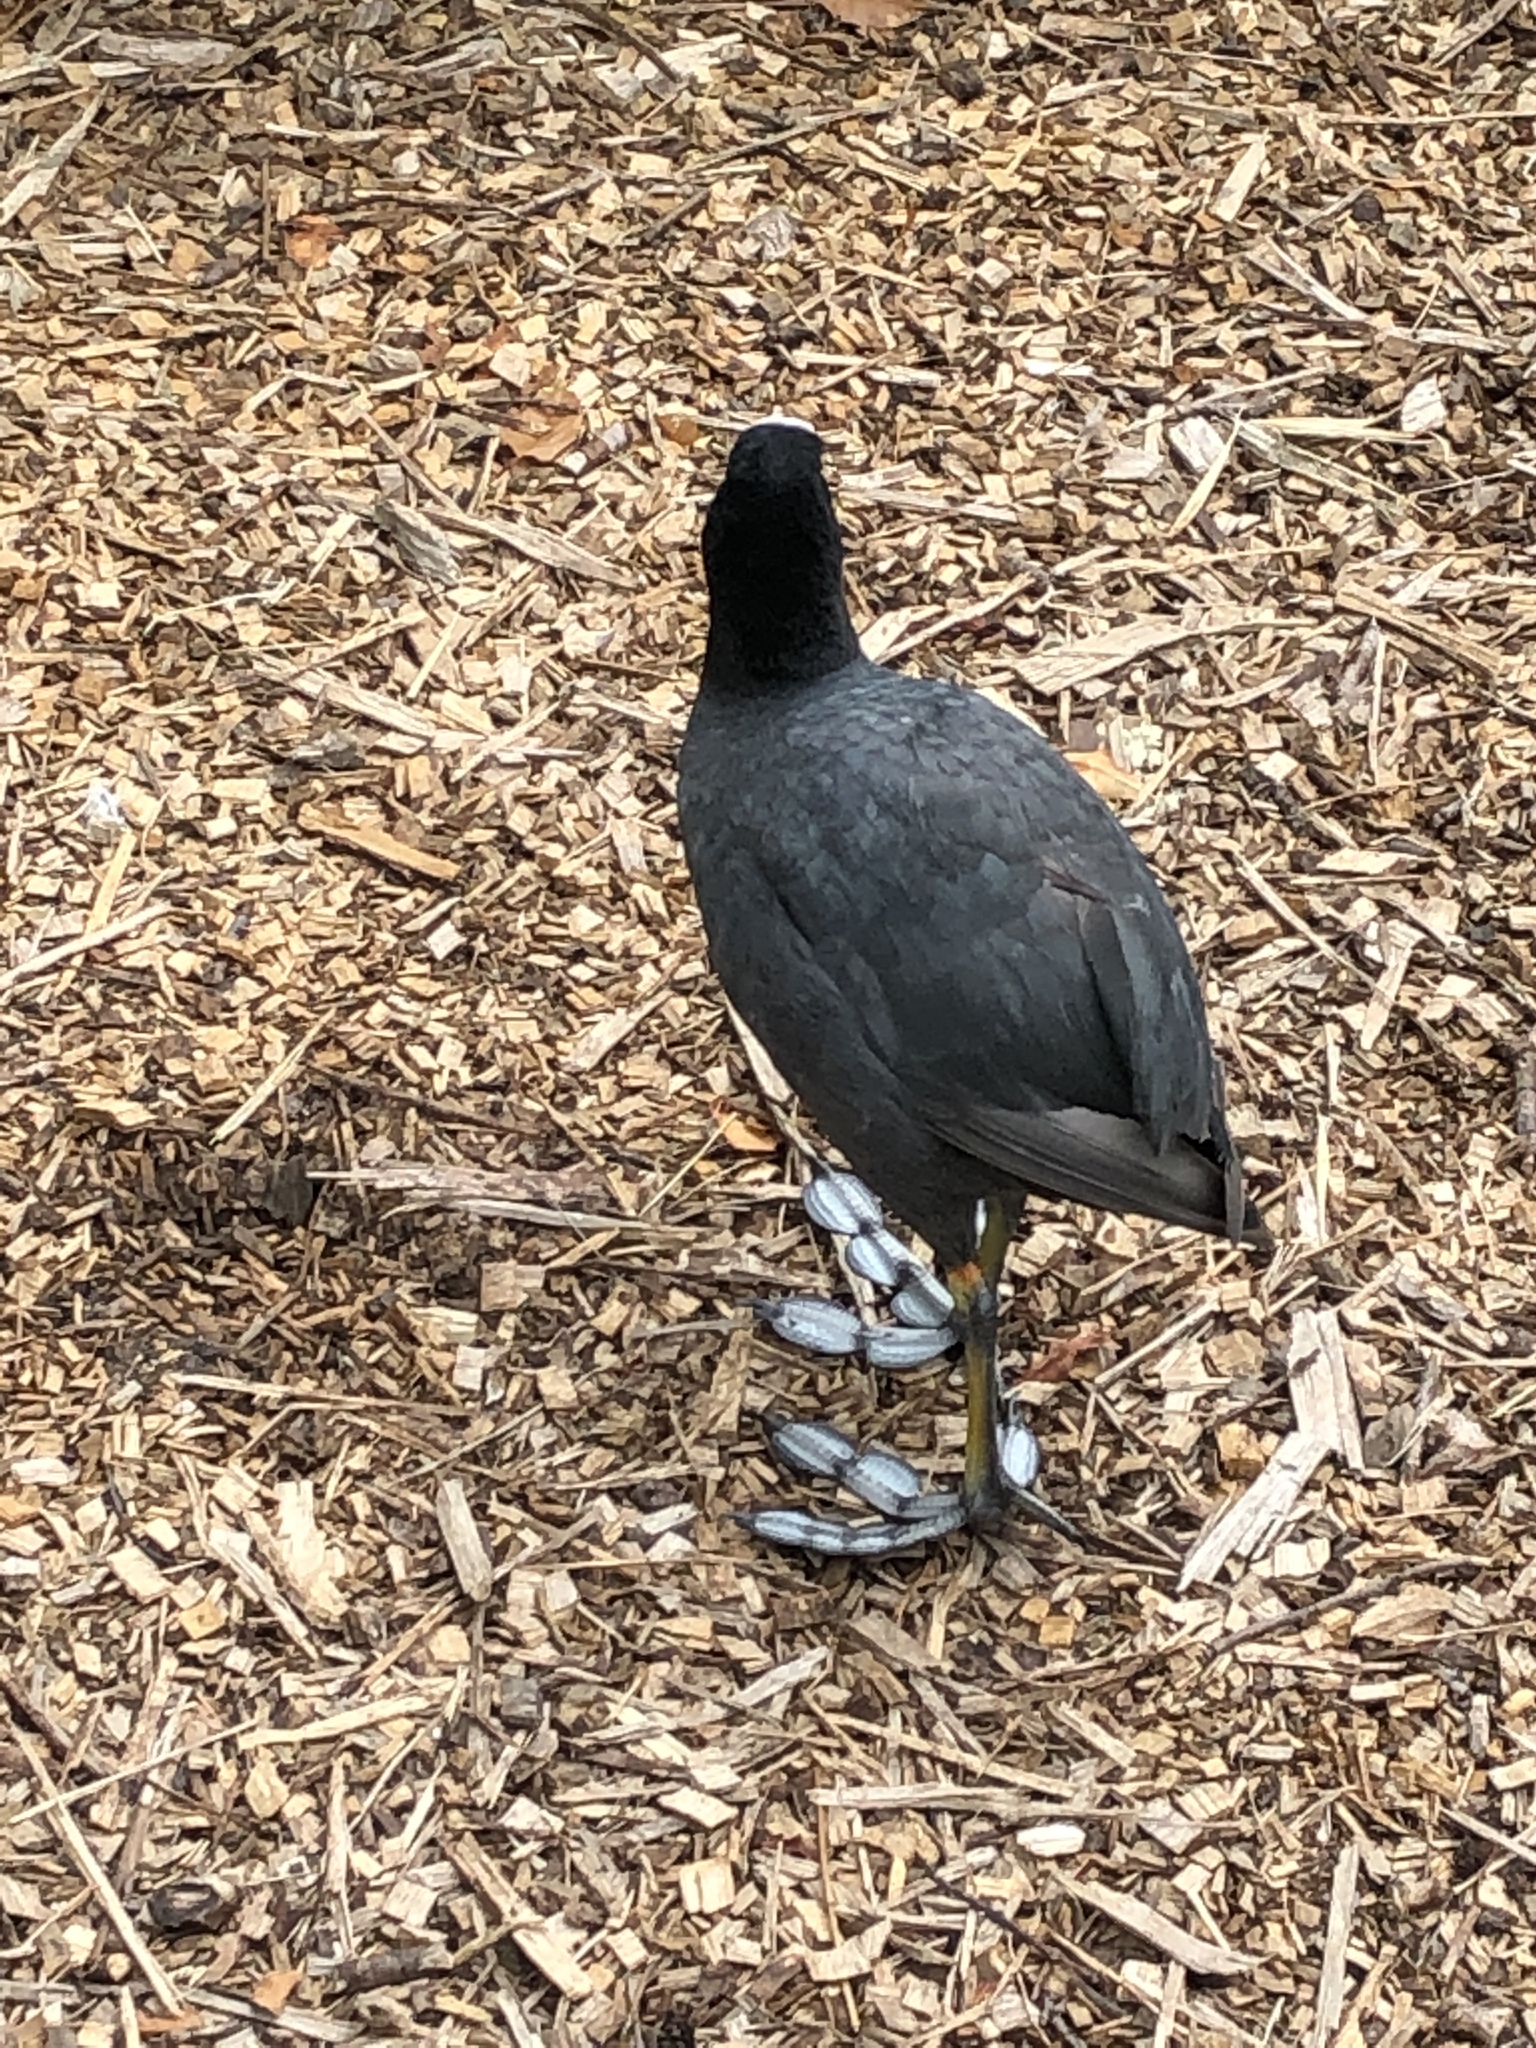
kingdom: Animalia
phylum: Chordata
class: Aves
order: Gruiformes
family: Rallidae
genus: Fulica
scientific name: Fulica atra
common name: Eurasian coot
